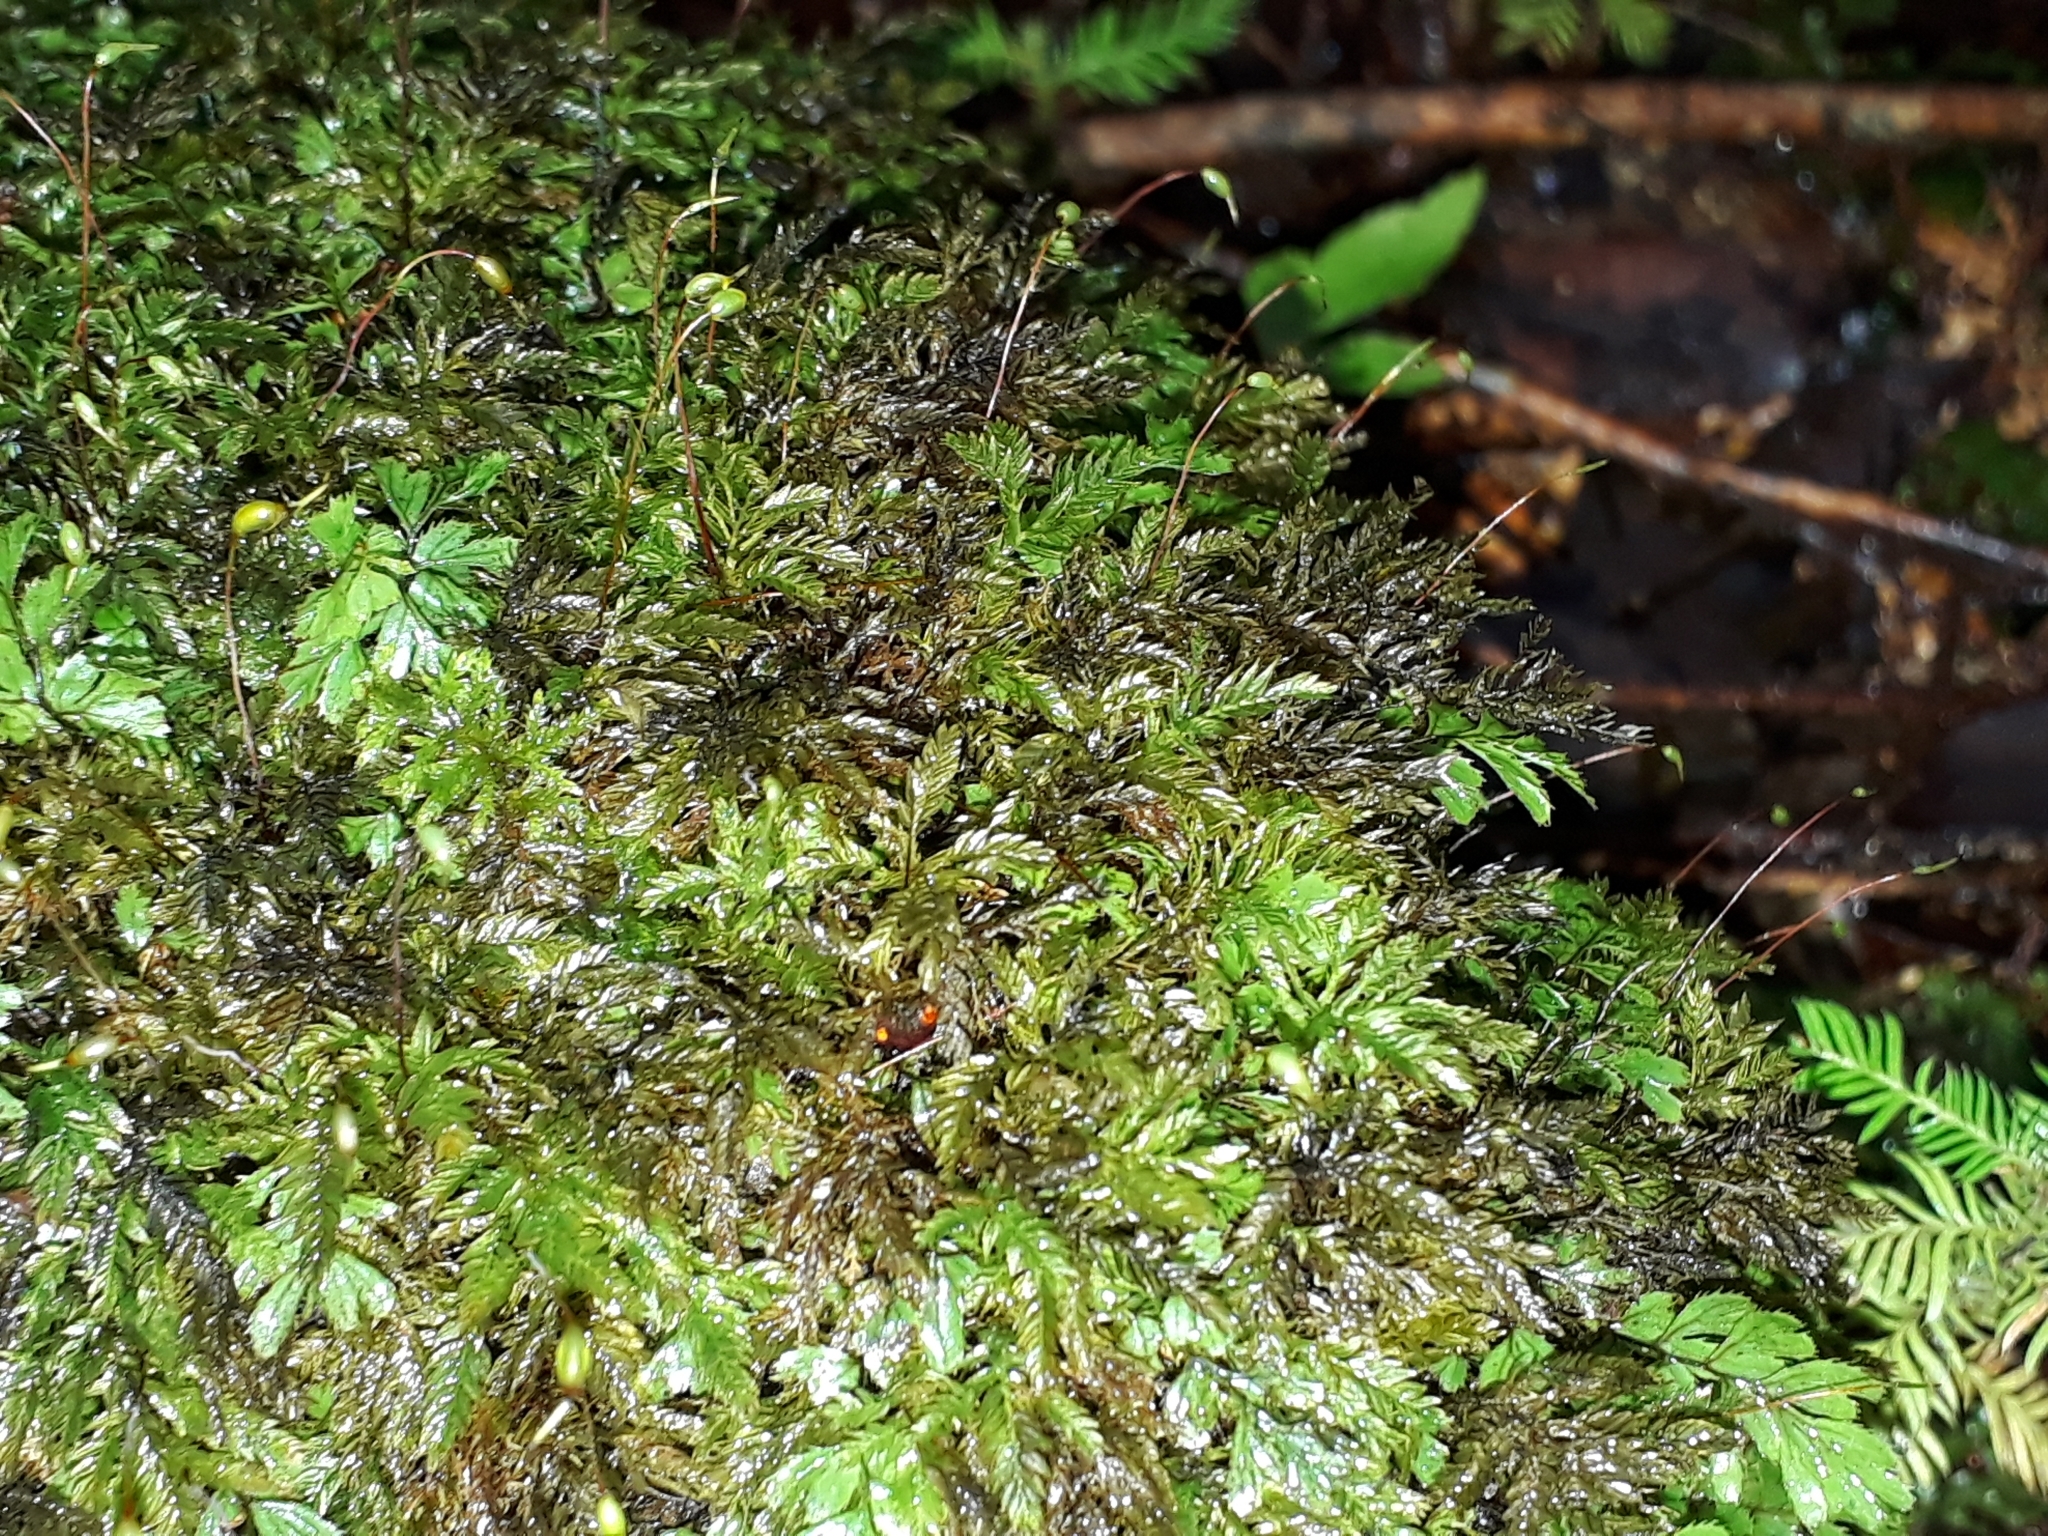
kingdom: Plantae
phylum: Bryophyta
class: Bryopsida
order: Aulacomniales
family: Aulacomniaceae
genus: Hymenodontopsis
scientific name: Hymenodontopsis bifaria
